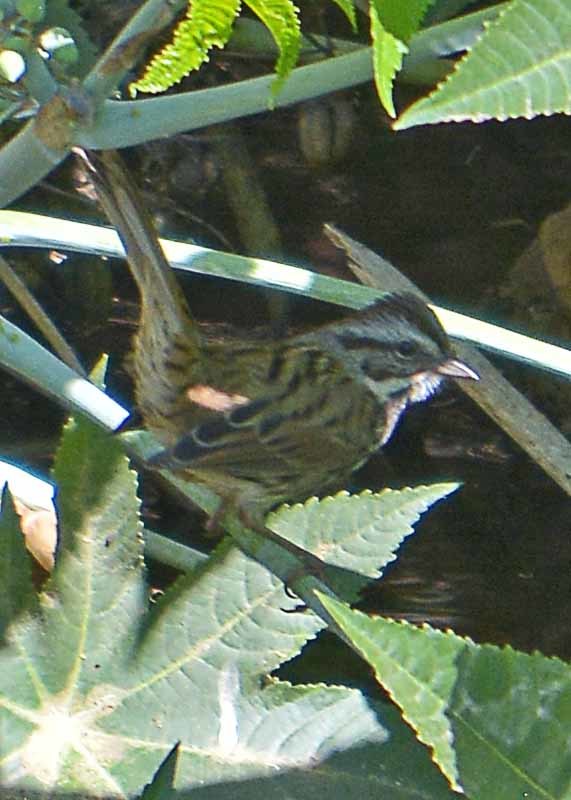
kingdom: Animalia
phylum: Chordata
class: Aves
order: Passeriformes
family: Passerellidae
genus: Melospiza
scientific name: Melospiza melodia
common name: Song sparrow
